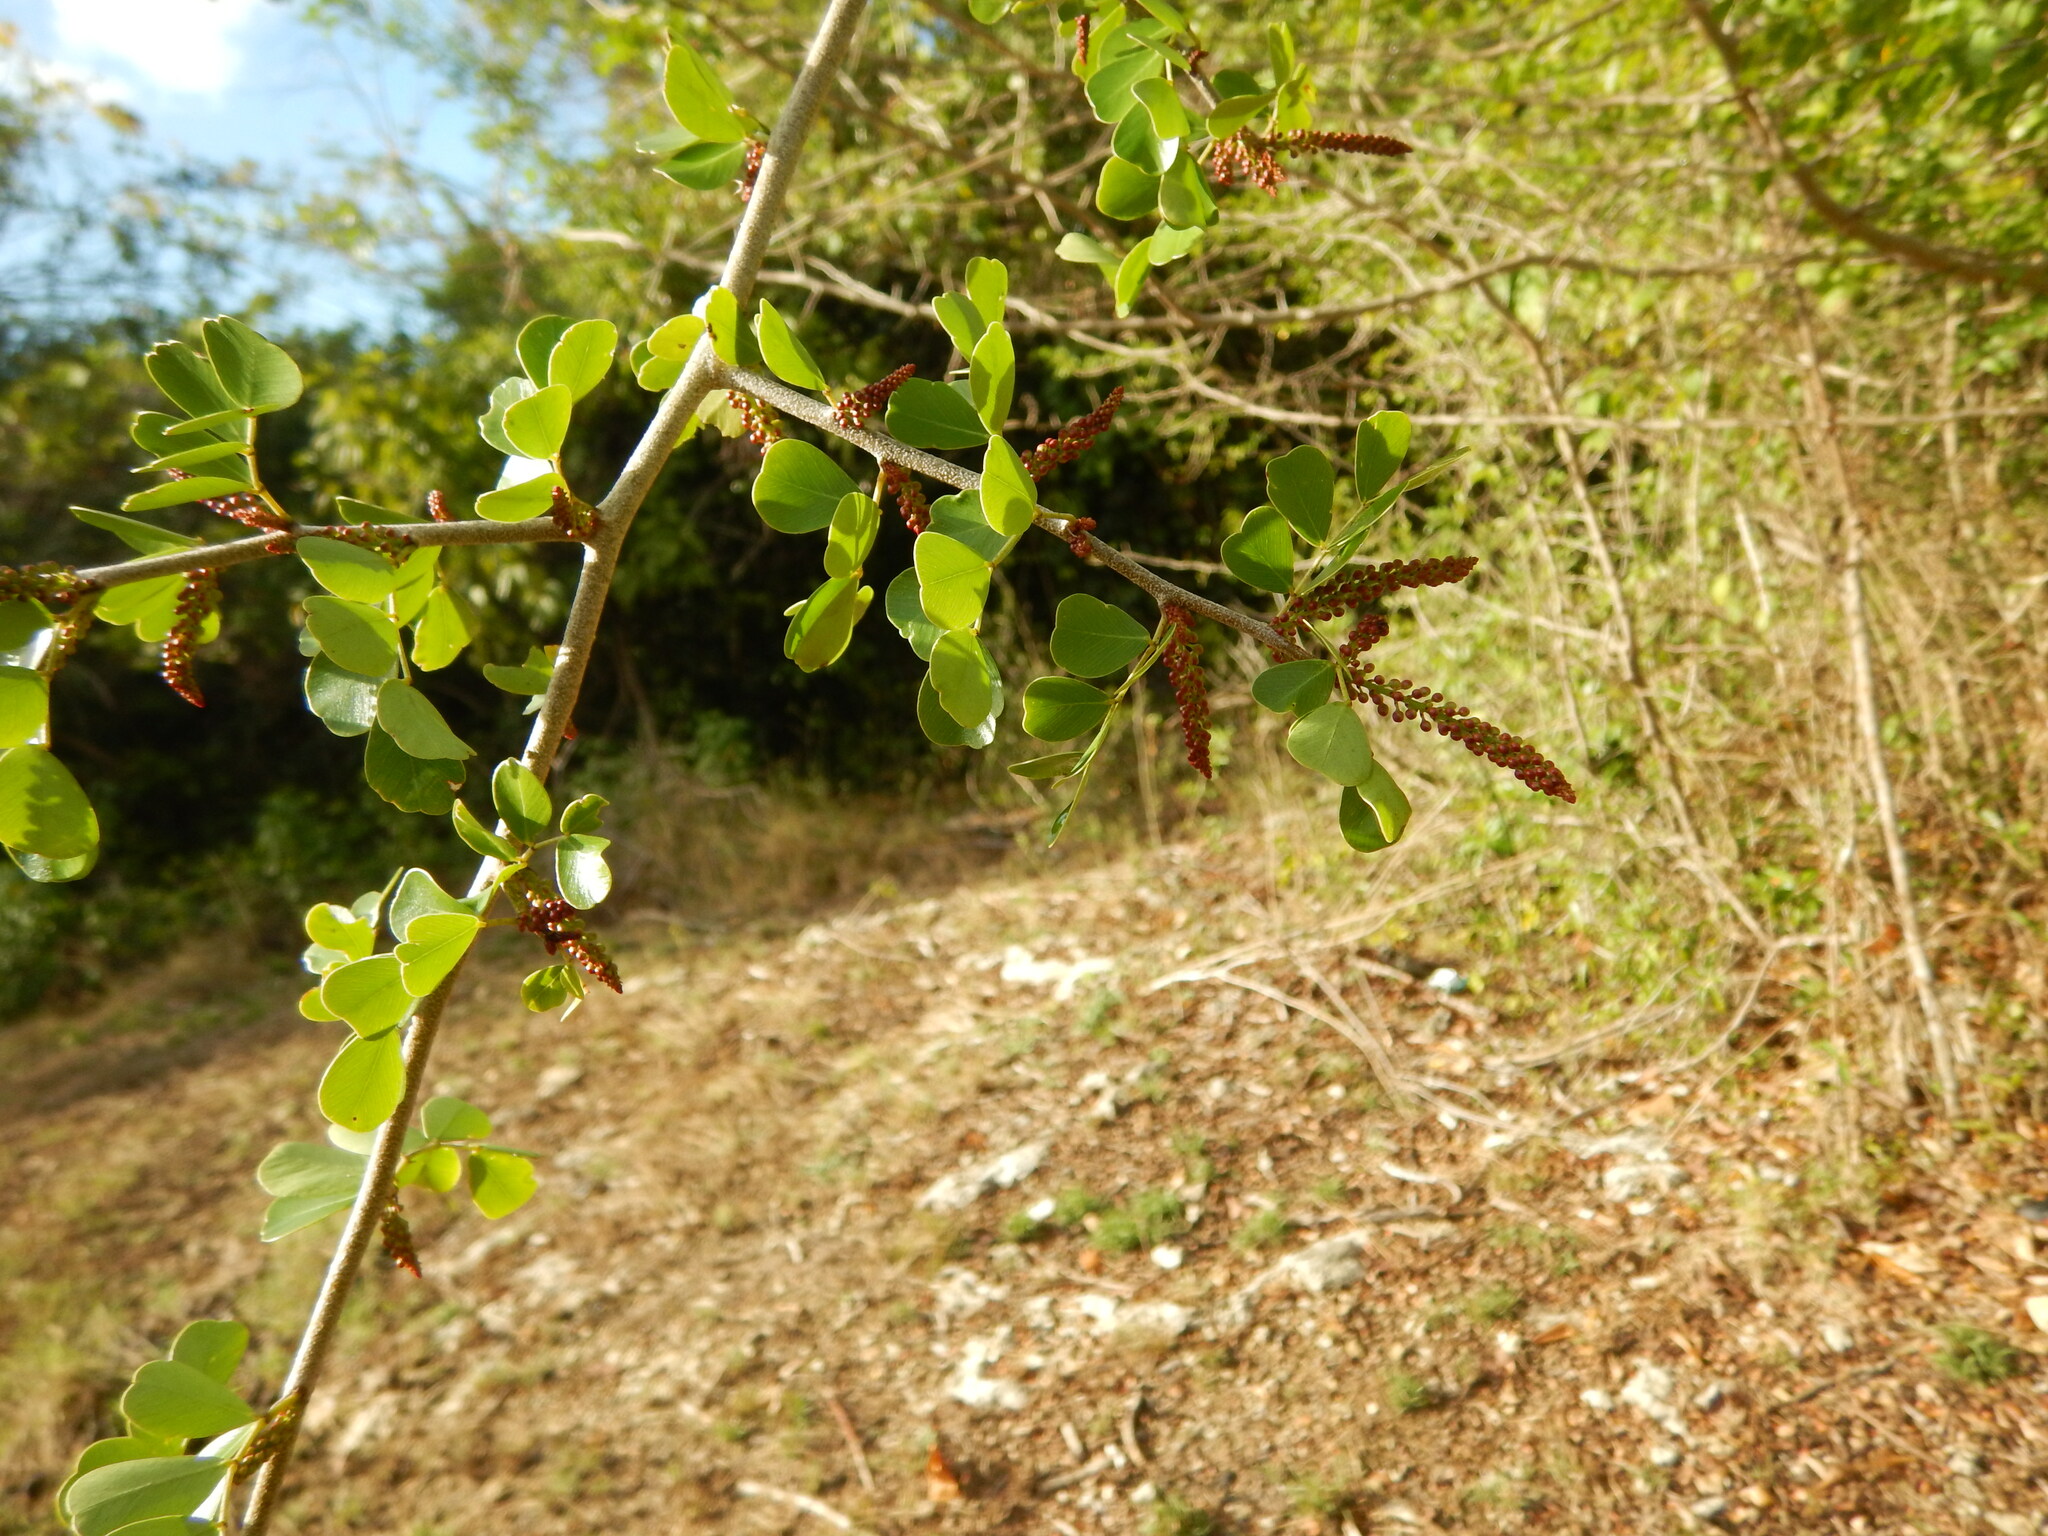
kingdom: Plantae
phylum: Tracheophyta
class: Magnoliopsida
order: Fabales
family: Fabaceae
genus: Haematoxylum
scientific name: Haematoxylum campechianum
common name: Logwood
